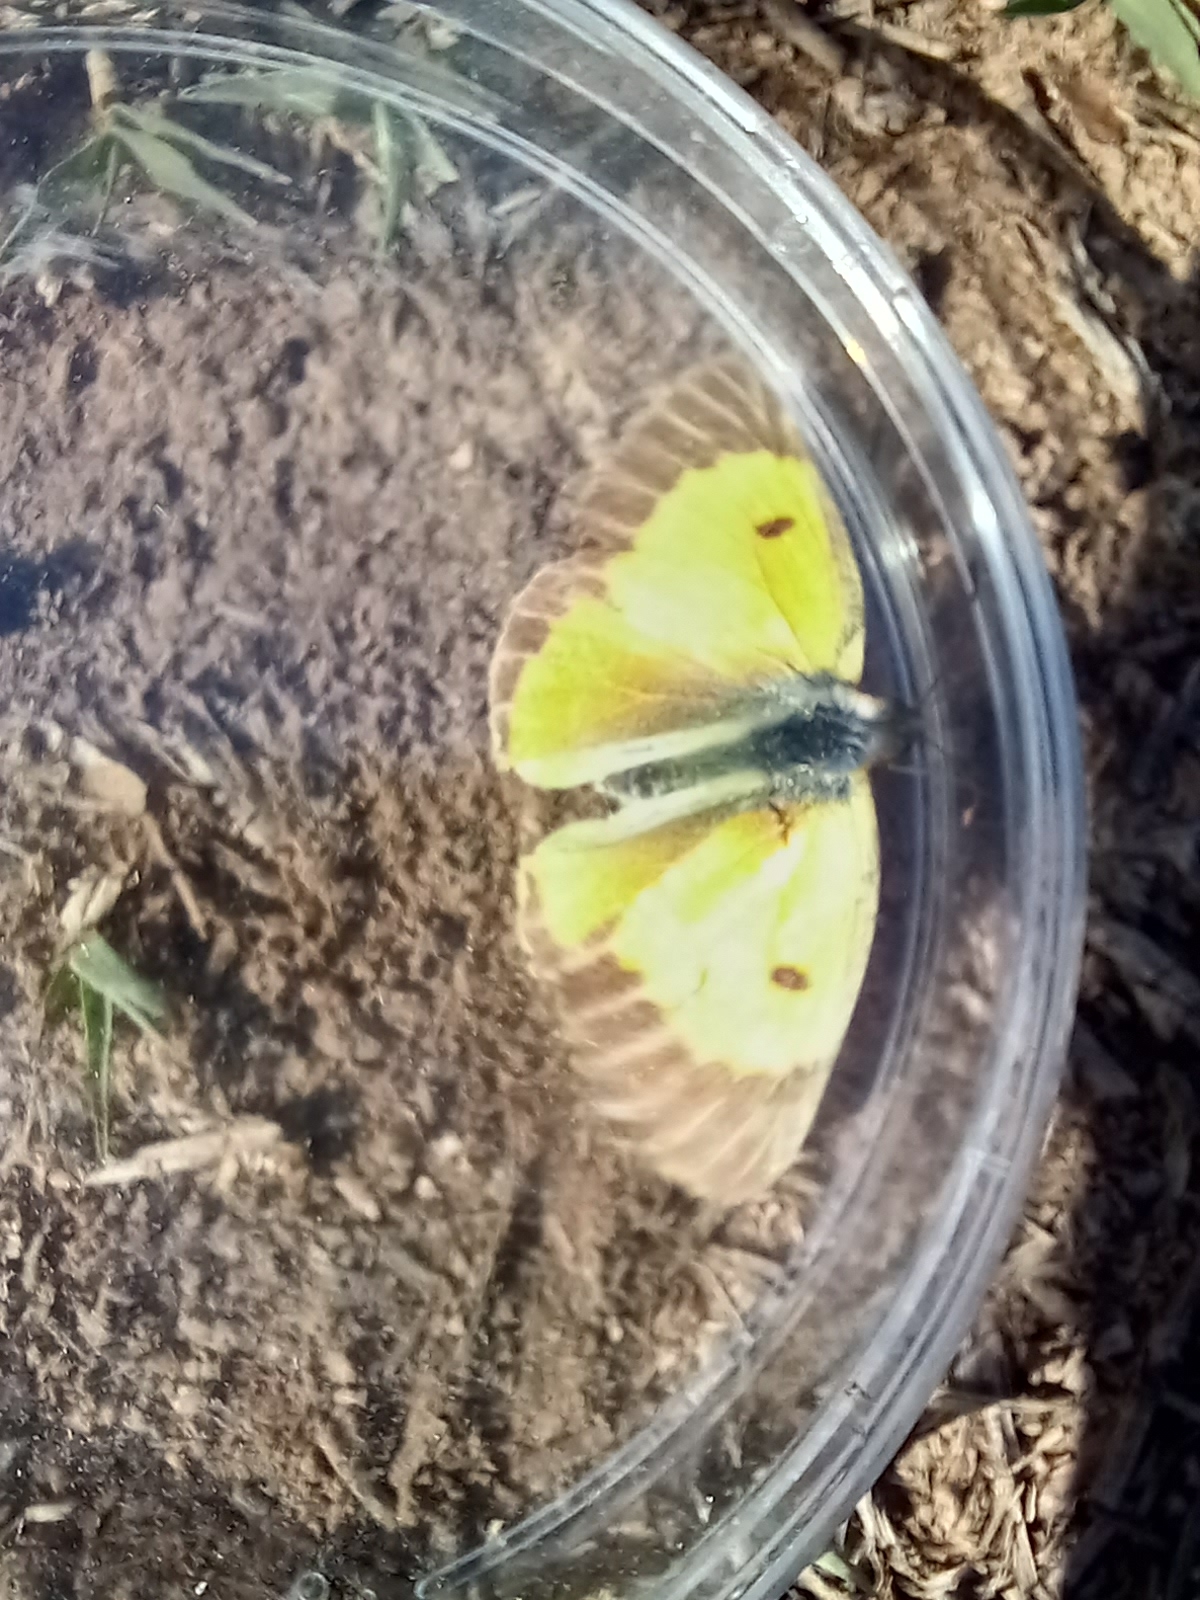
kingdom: Animalia
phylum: Arthropoda
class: Insecta
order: Lepidoptera
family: Pieridae
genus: Colias
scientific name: Colias croceus
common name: Clouded yellow
